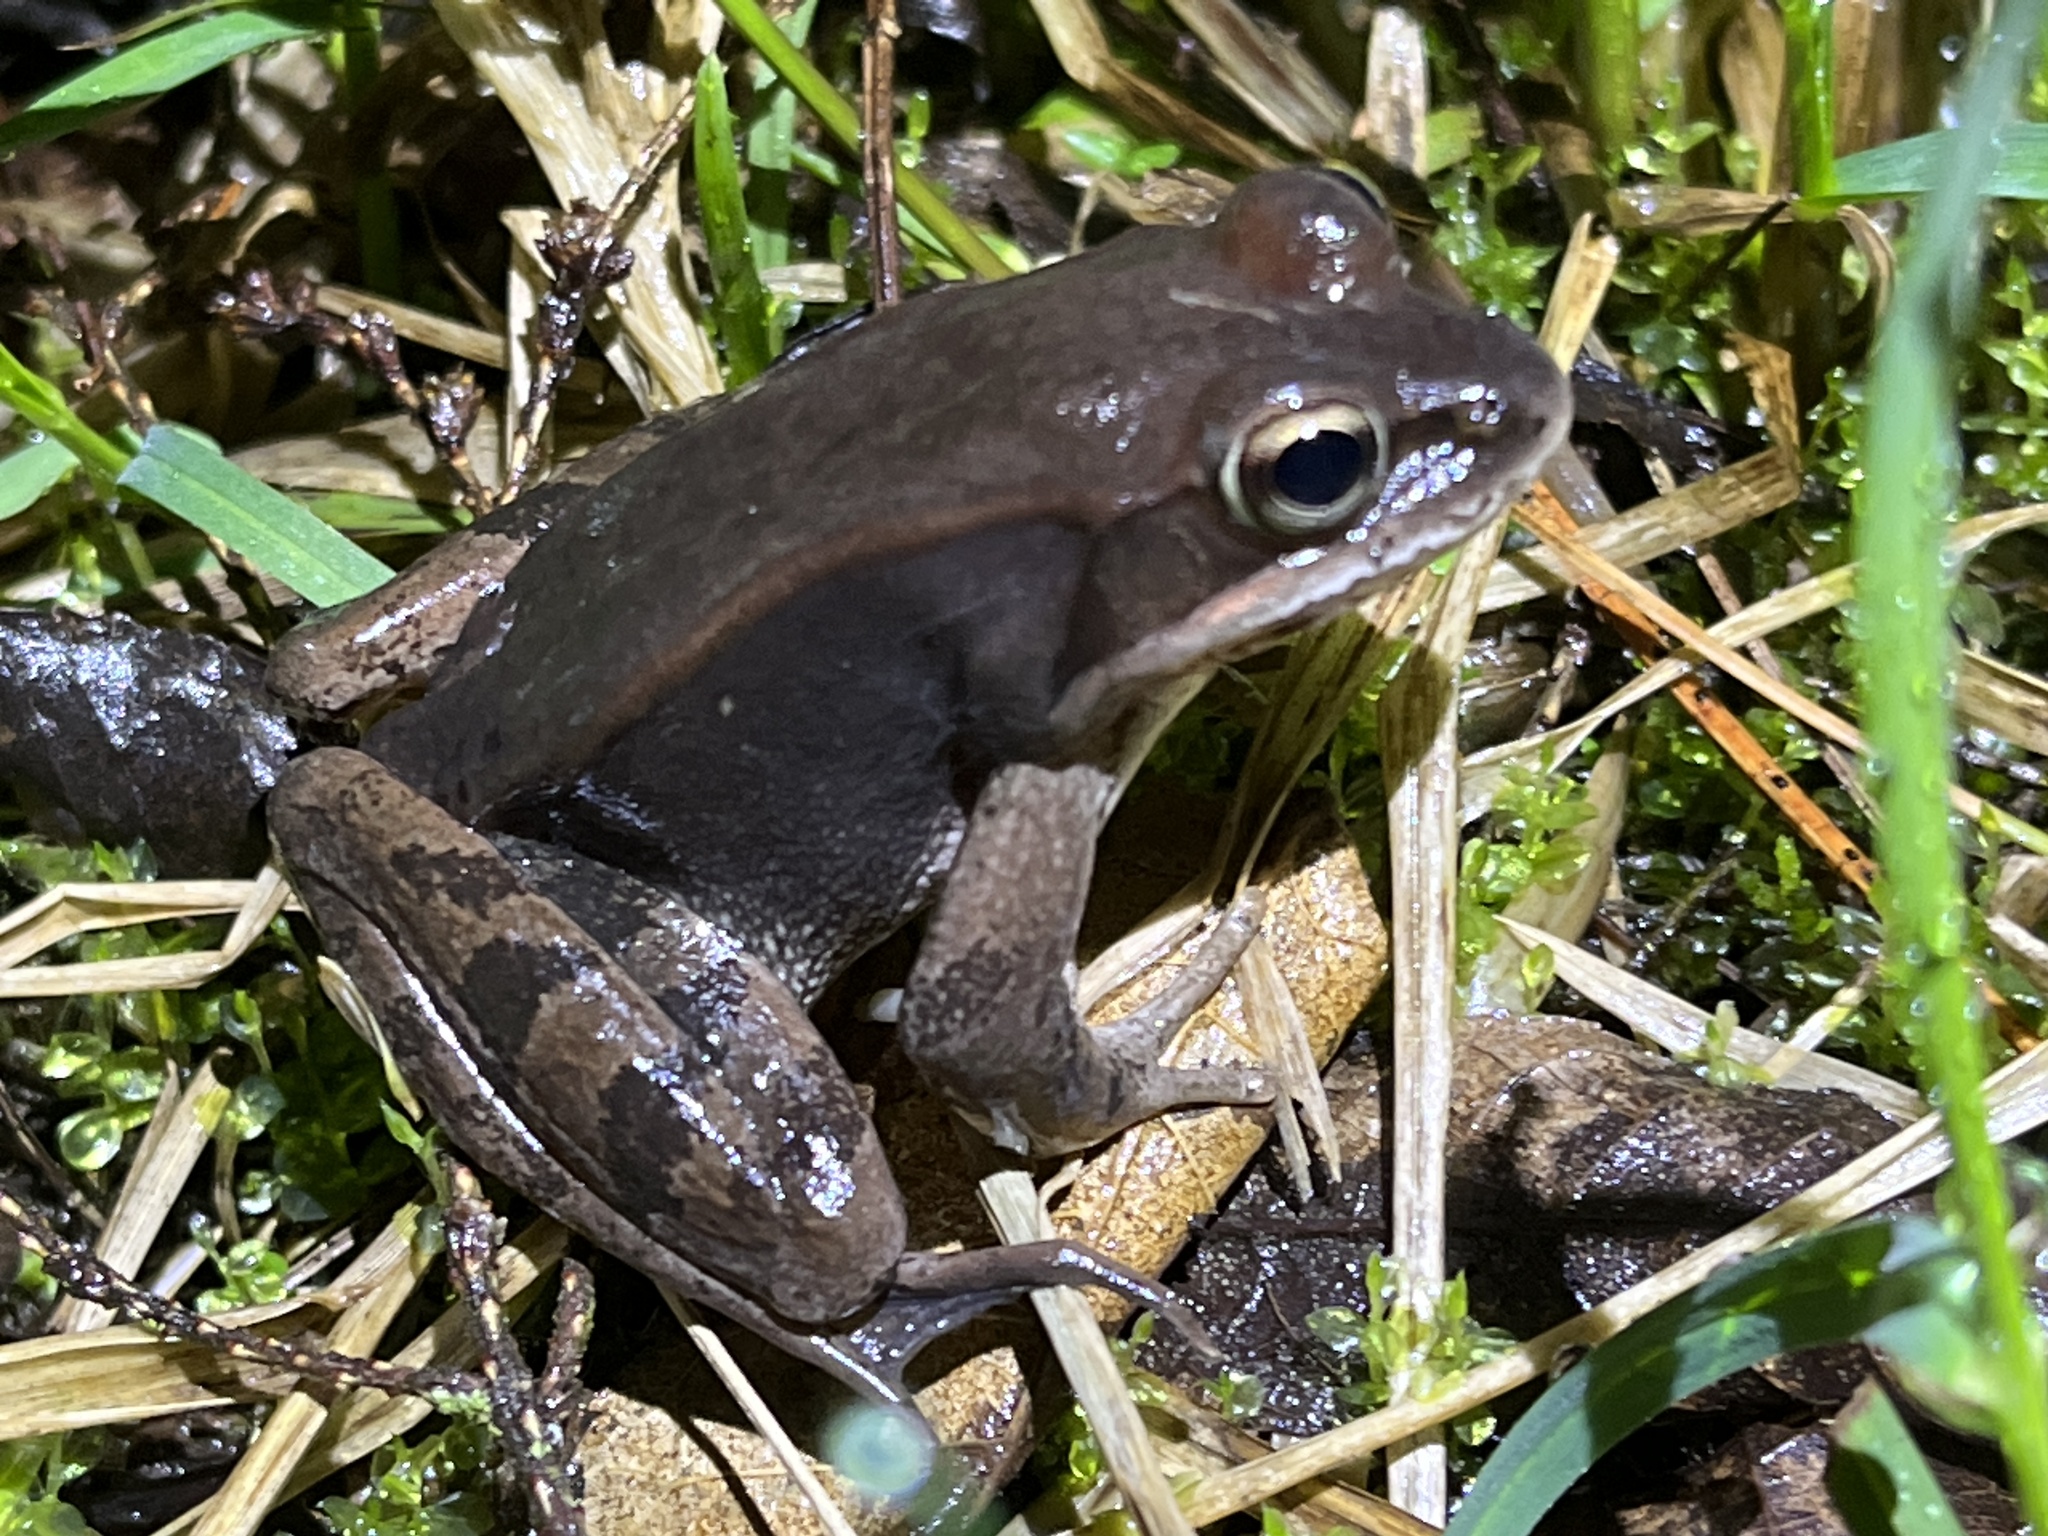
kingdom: Animalia
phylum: Chordata
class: Amphibia
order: Anura
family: Ranidae
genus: Lithobates
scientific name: Lithobates sylvaticus
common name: Wood frog
